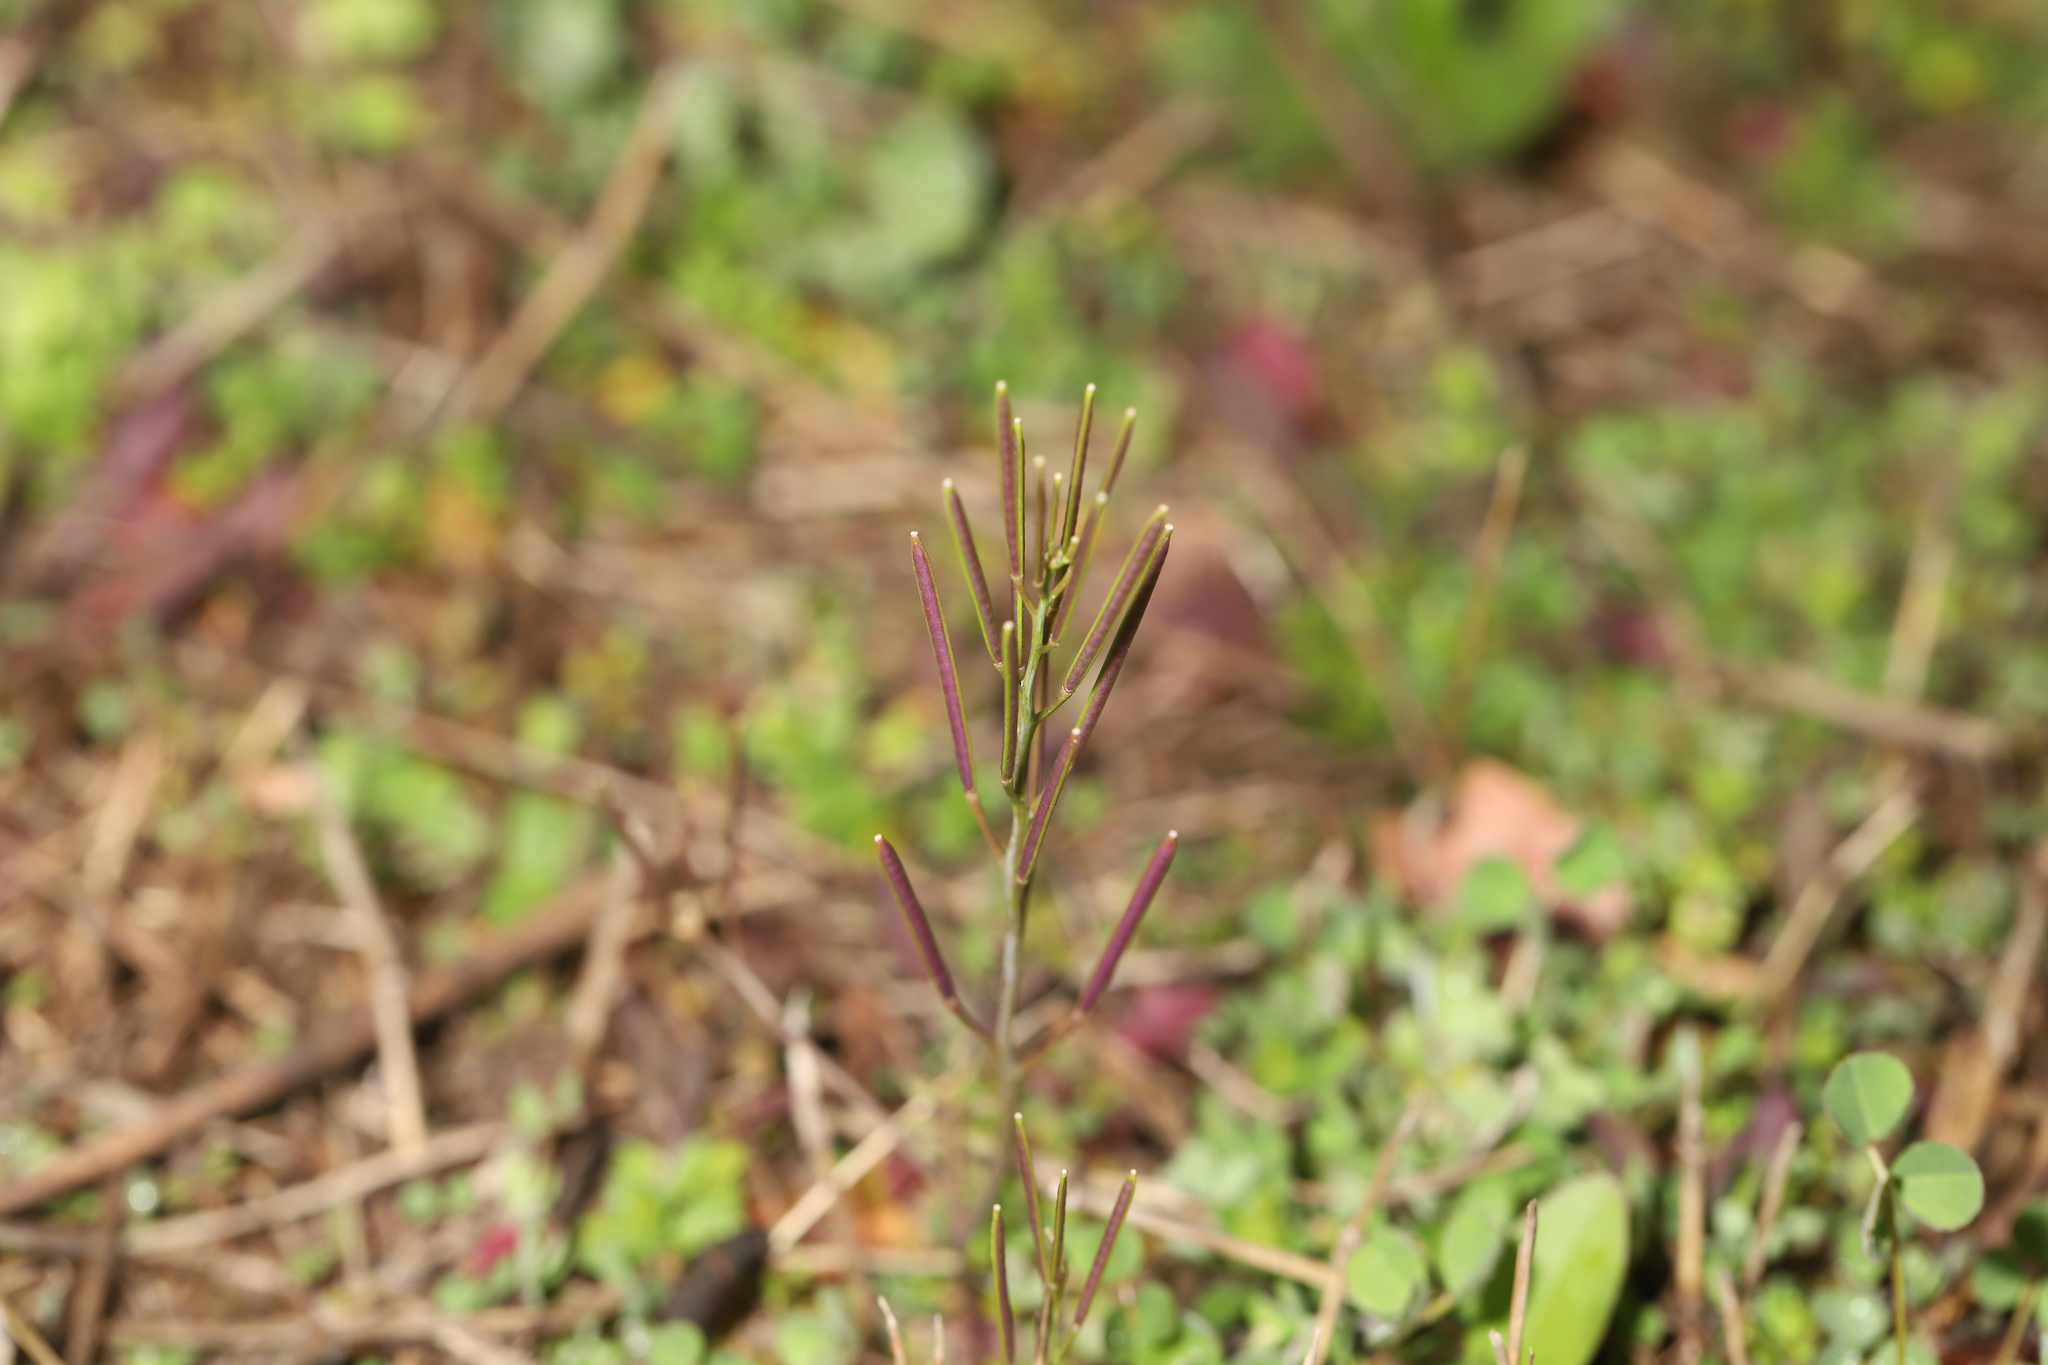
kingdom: Plantae
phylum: Tracheophyta
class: Magnoliopsida
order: Brassicales
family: Brassicaceae
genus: Cardamine
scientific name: Cardamine hirsuta
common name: Hairy bittercress
